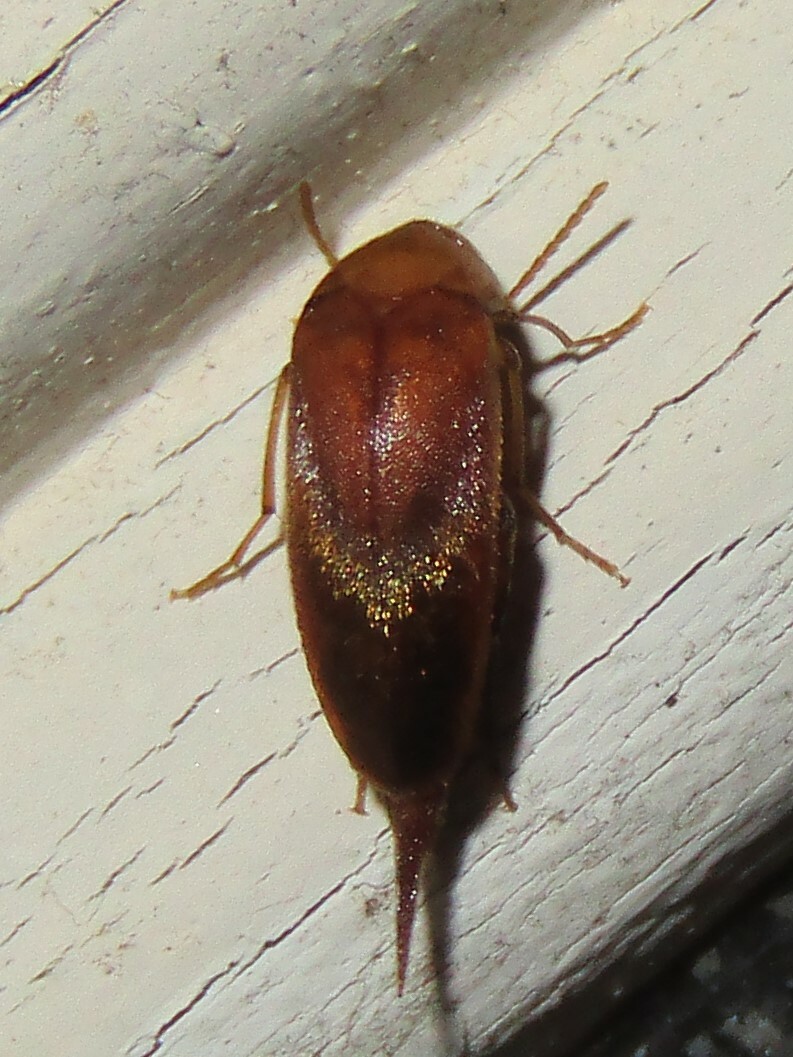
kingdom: Animalia
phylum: Arthropoda
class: Insecta
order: Coleoptera
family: Mordellidae
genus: Glipostenoda
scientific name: Glipostenoda ambusta
